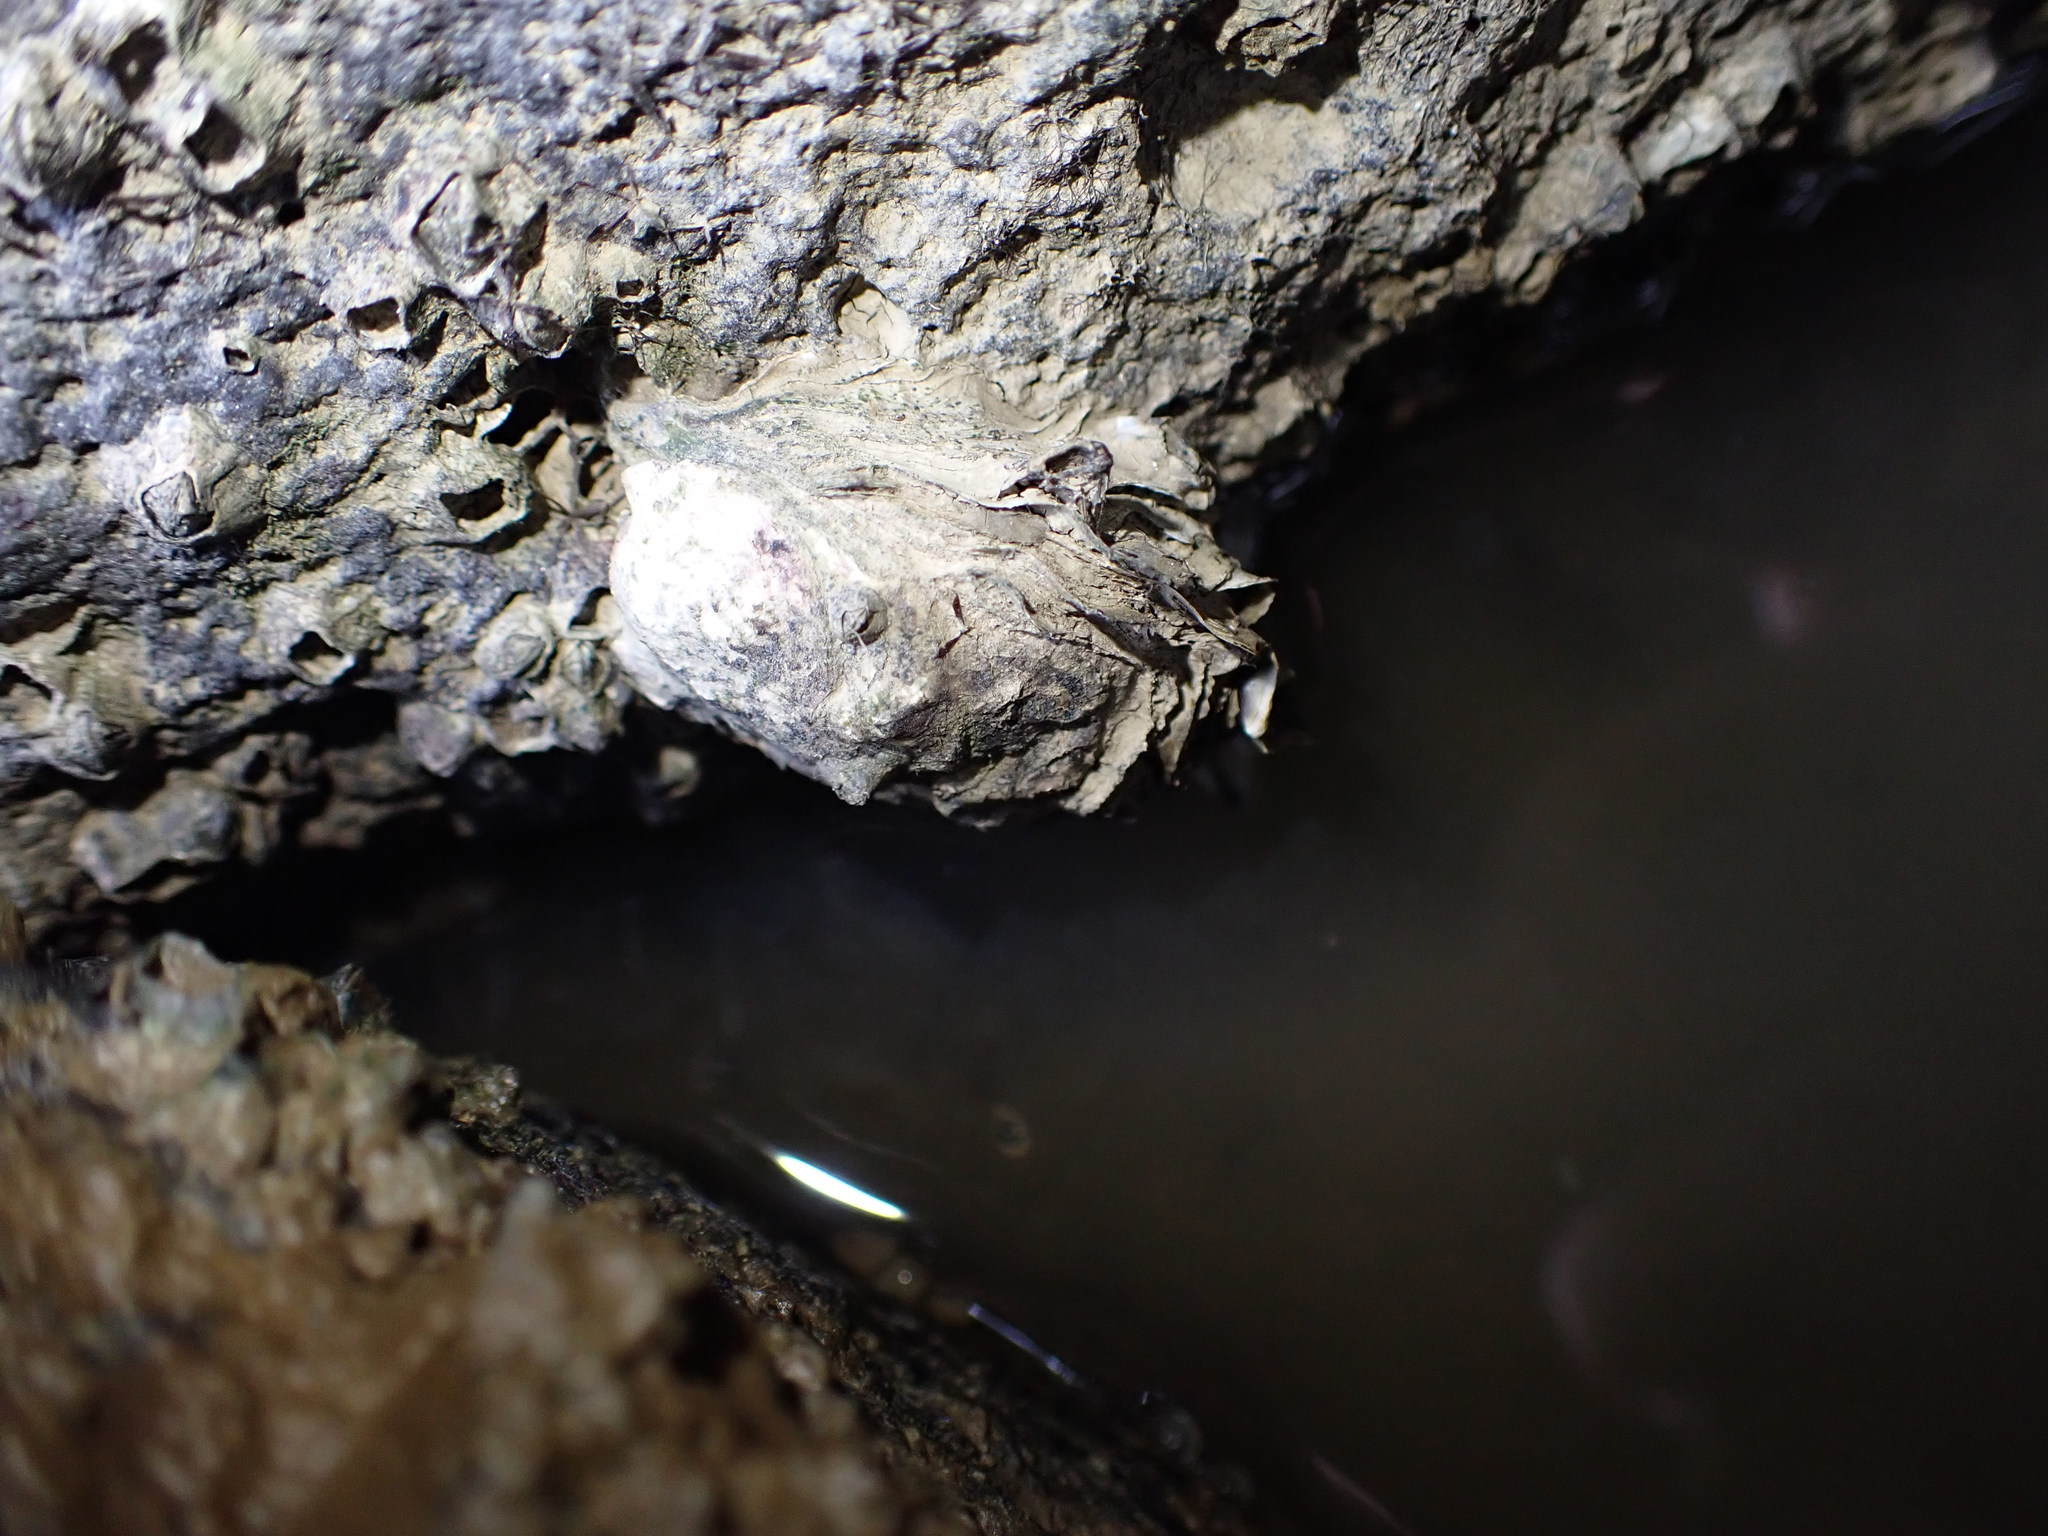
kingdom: Animalia
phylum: Mollusca
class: Bivalvia
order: Ostreida
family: Ostreidae
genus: Magallana
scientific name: Magallana gigas
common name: Pacific oyster
